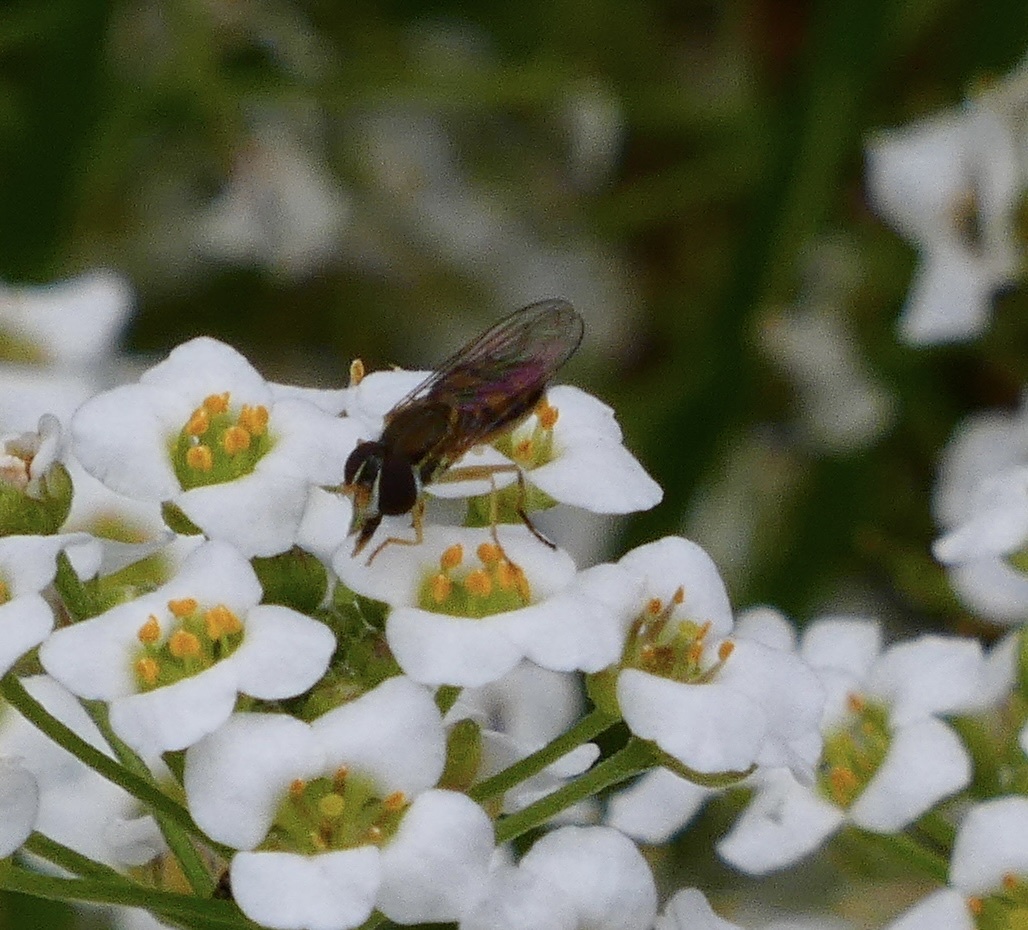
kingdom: Animalia
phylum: Arthropoda
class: Insecta
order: Diptera
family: Syrphidae
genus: Toxomerus
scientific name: Toxomerus marginatus
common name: Syrphid fly
